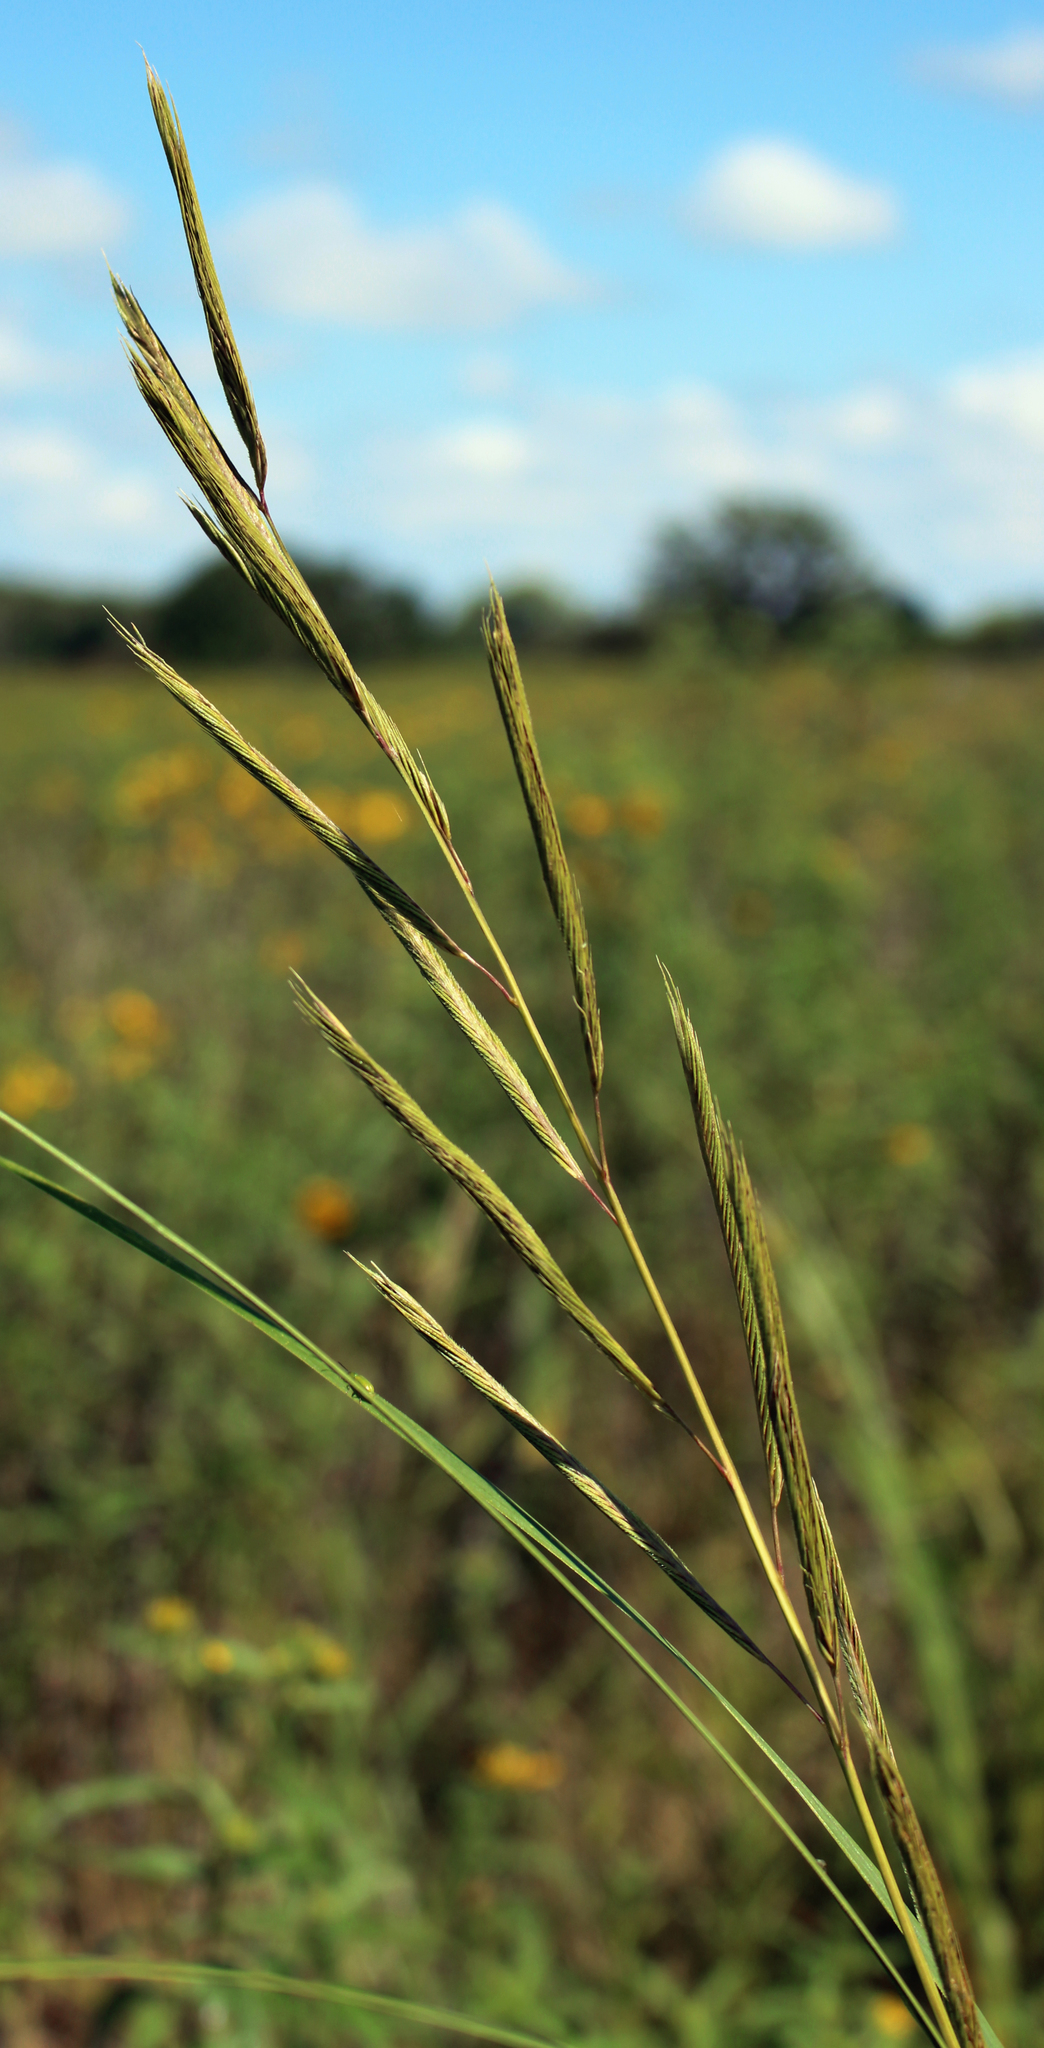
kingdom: Plantae
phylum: Tracheophyta
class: Liliopsida
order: Poales
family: Poaceae
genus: Sporobolus
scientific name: Sporobolus michauxianus
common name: Freshwater cordgrass
